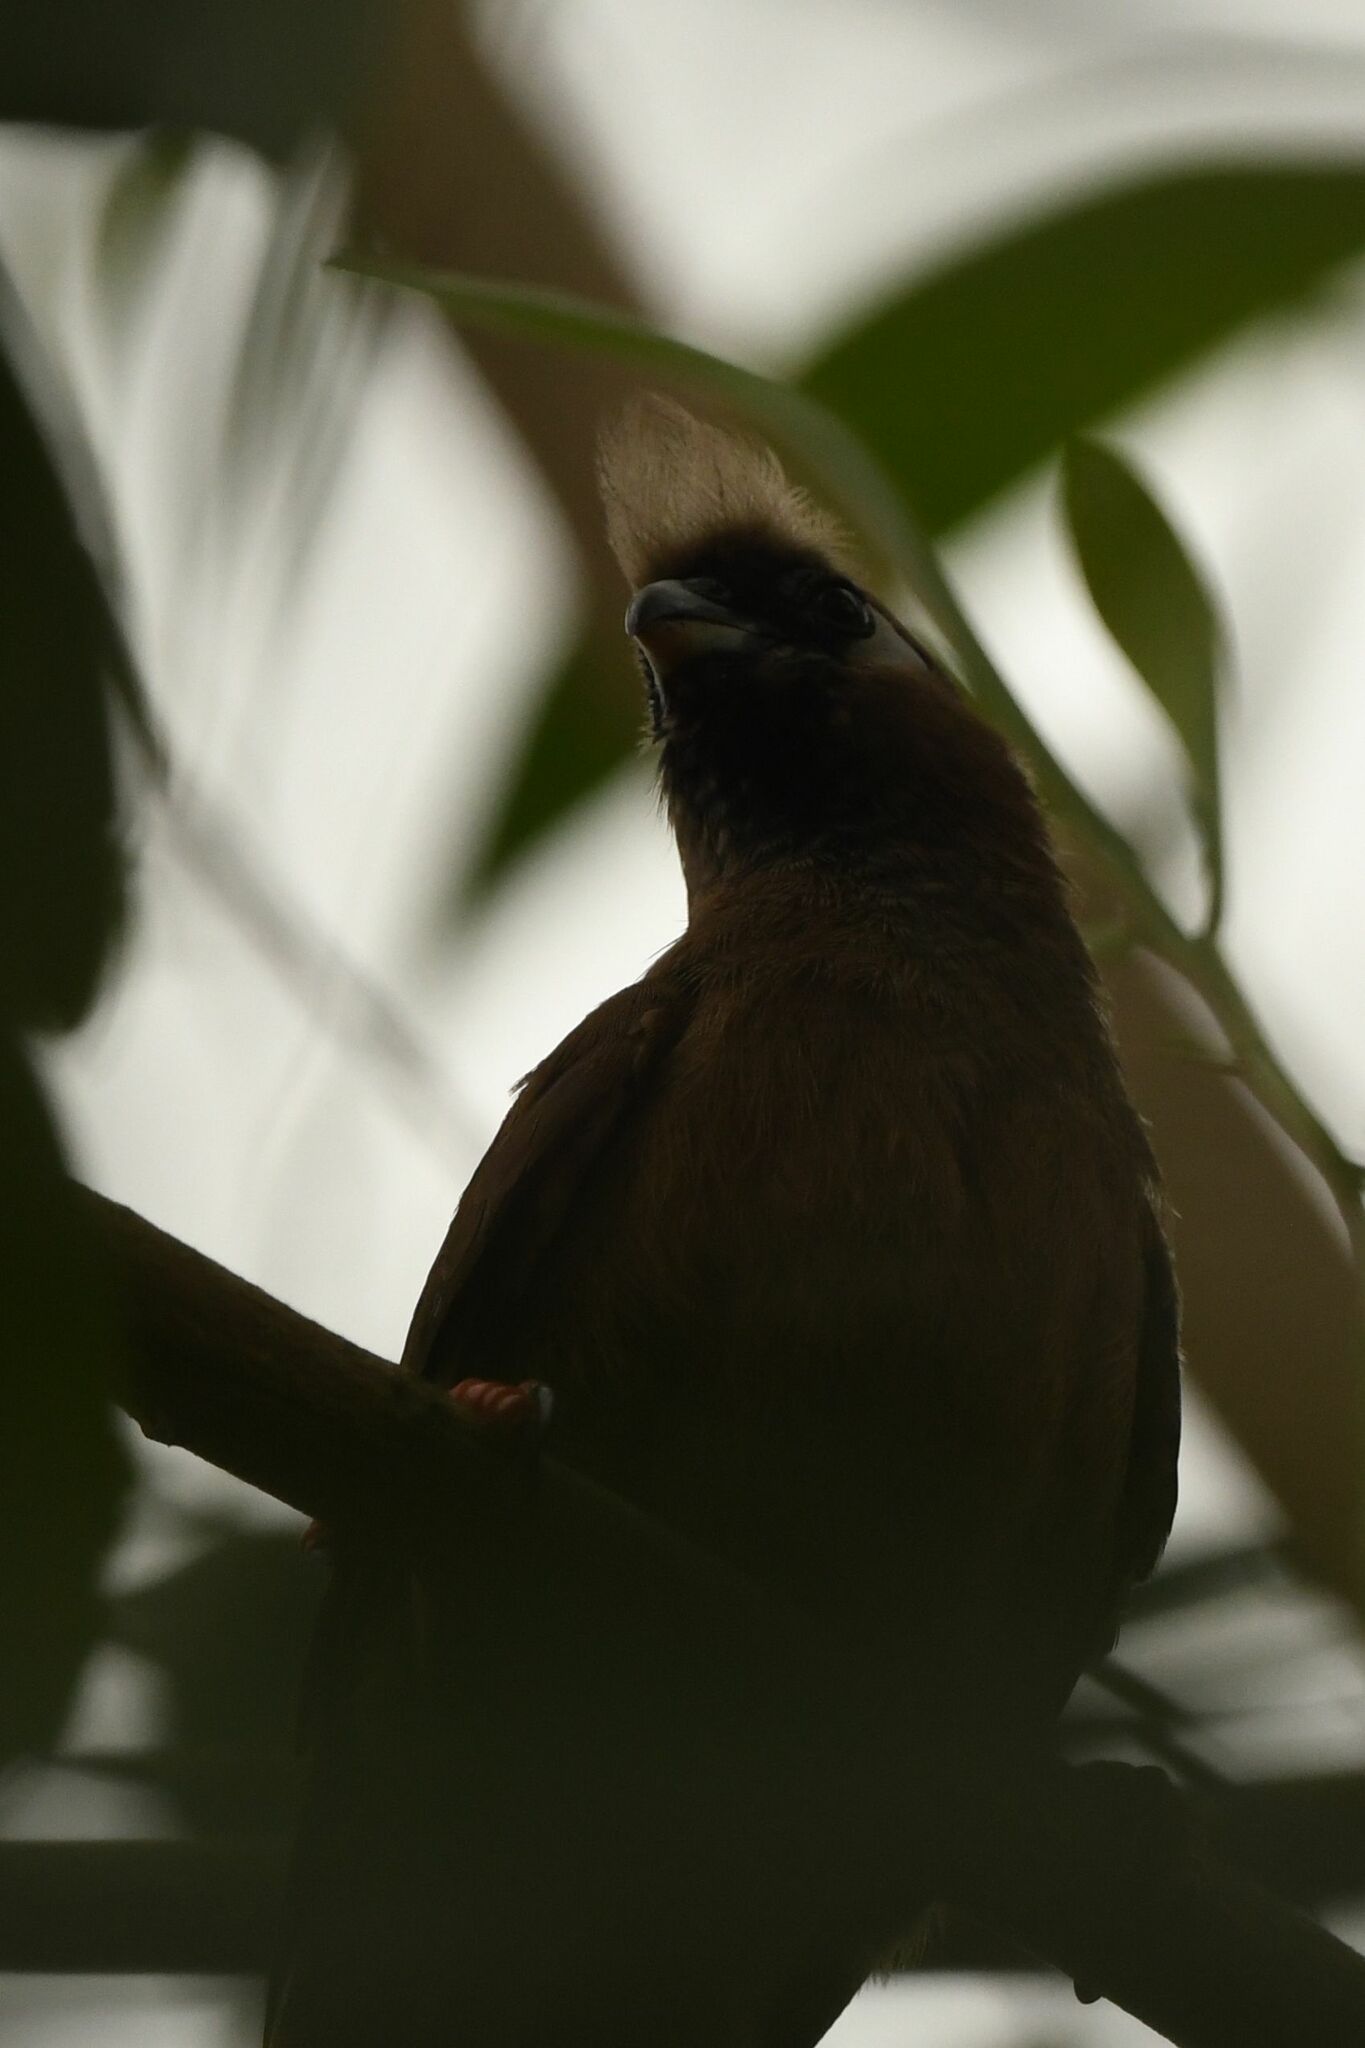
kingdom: Animalia
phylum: Chordata
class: Aves
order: Coliiformes
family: Coliidae
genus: Colius
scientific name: Colius striatus
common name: Speckled mousebird
